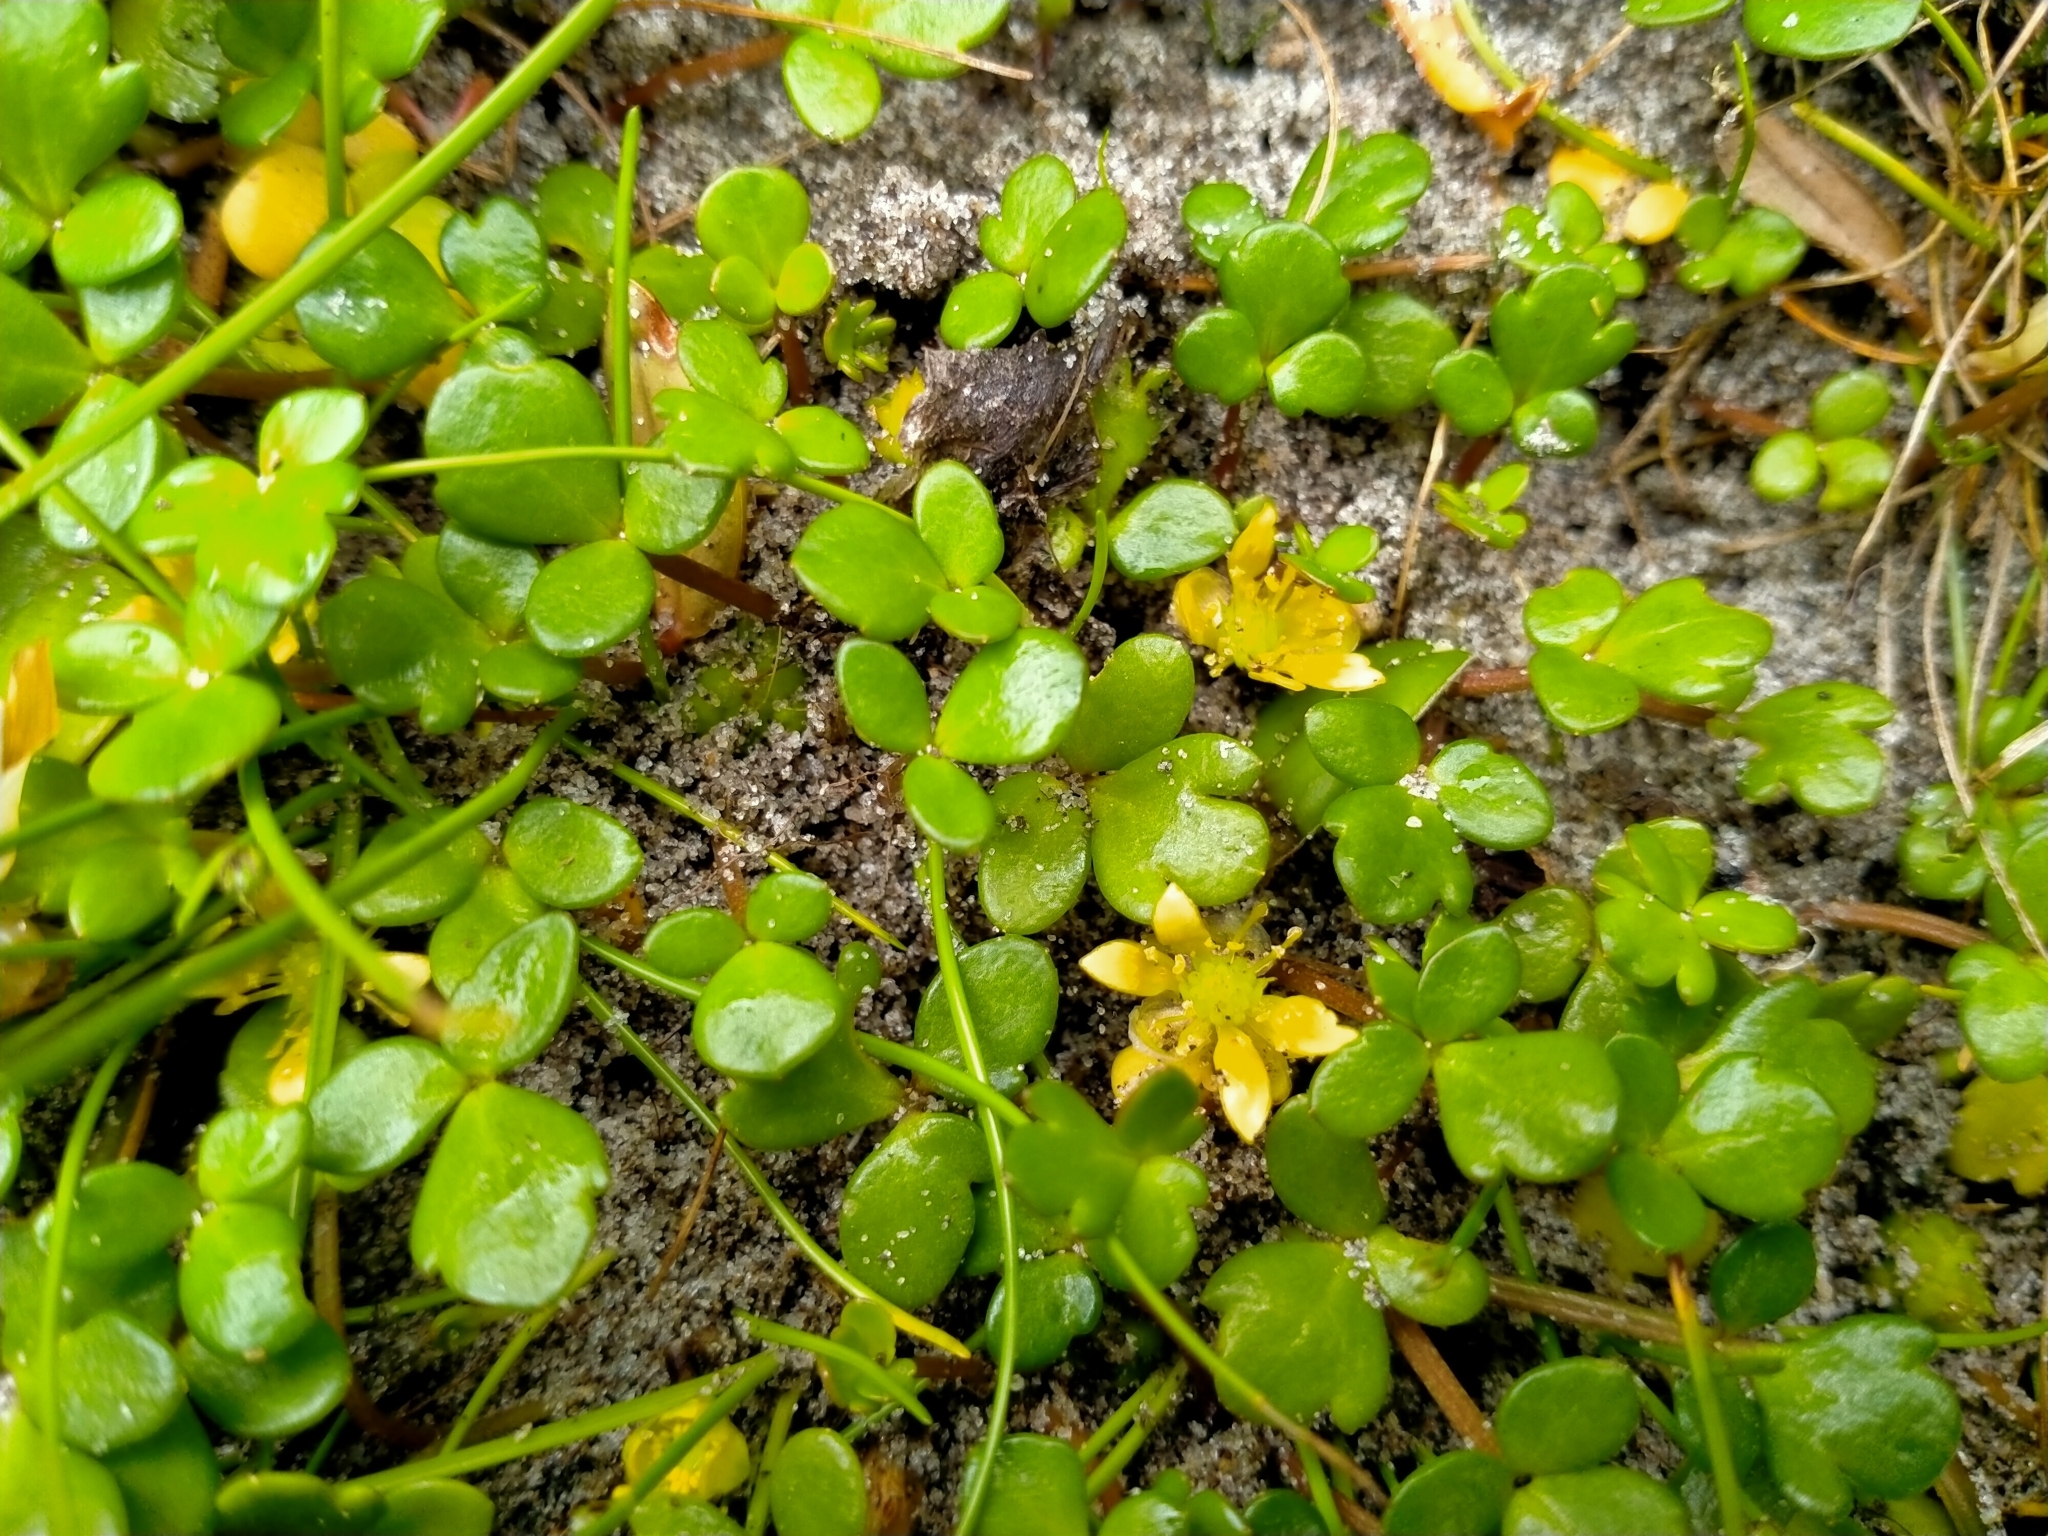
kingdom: Plantae
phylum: Tracheophyta
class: Magnoliopsida
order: Ranunculales
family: Ranunculaceae
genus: Ranunculus
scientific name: Ranunculus acaulis
